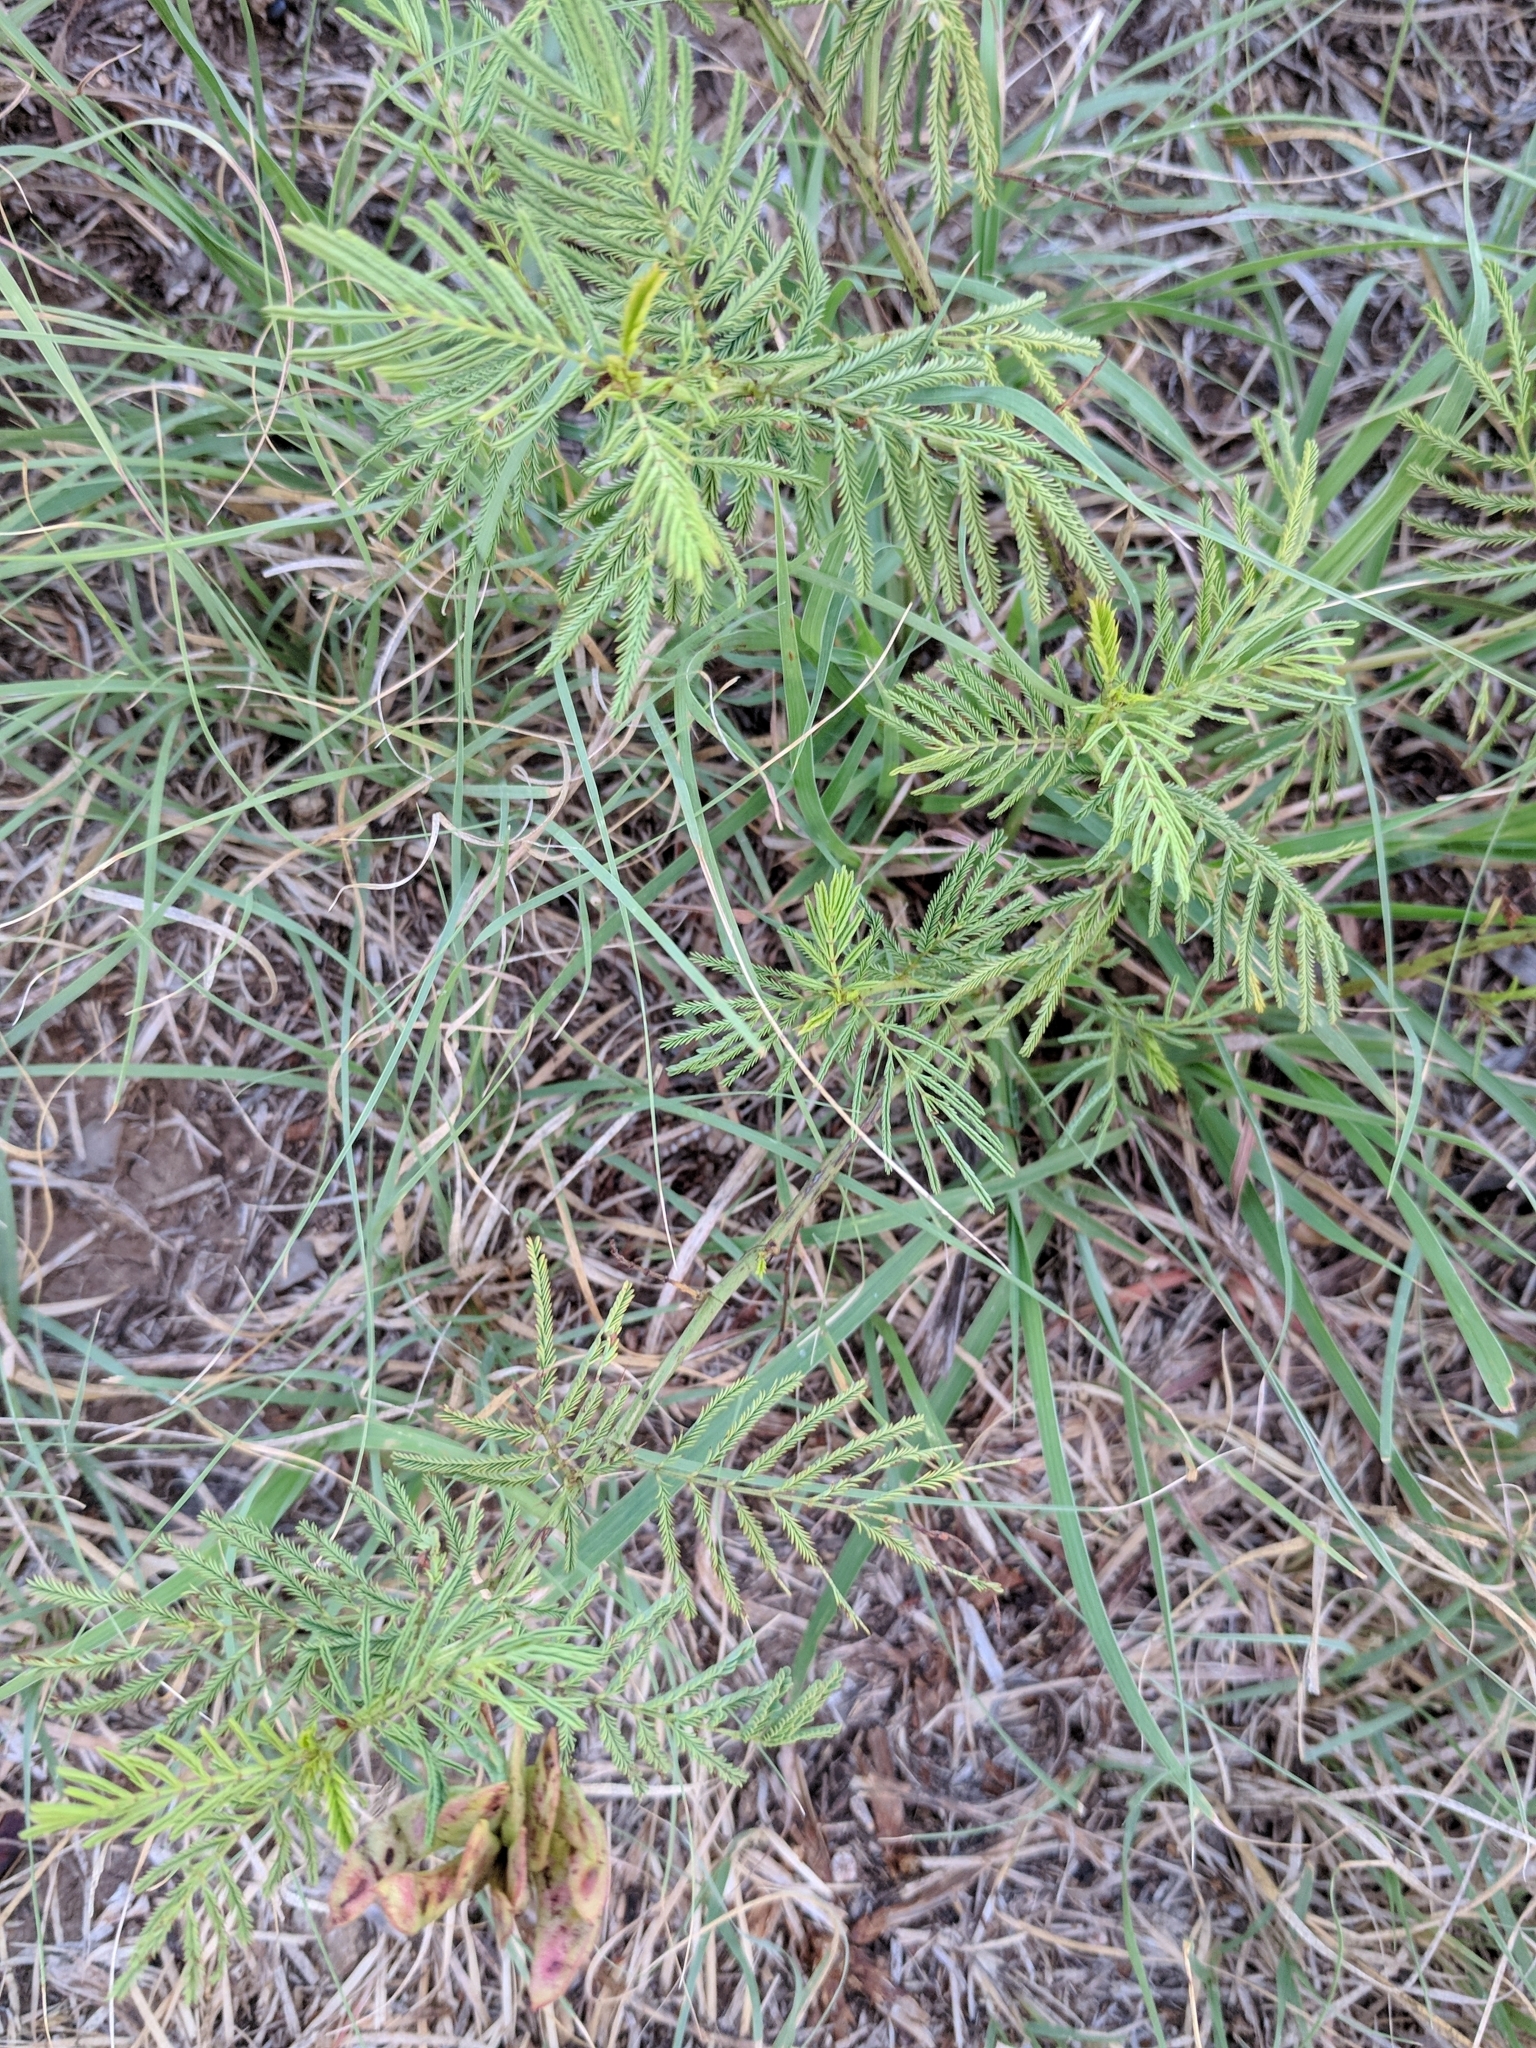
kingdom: Plantae
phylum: Tracheophyta
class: Magnoliopsida
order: Fabales
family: Fabaceae
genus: Desmanthus
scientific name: Desmanthus illinoensis
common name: Illinois bundle-flower
